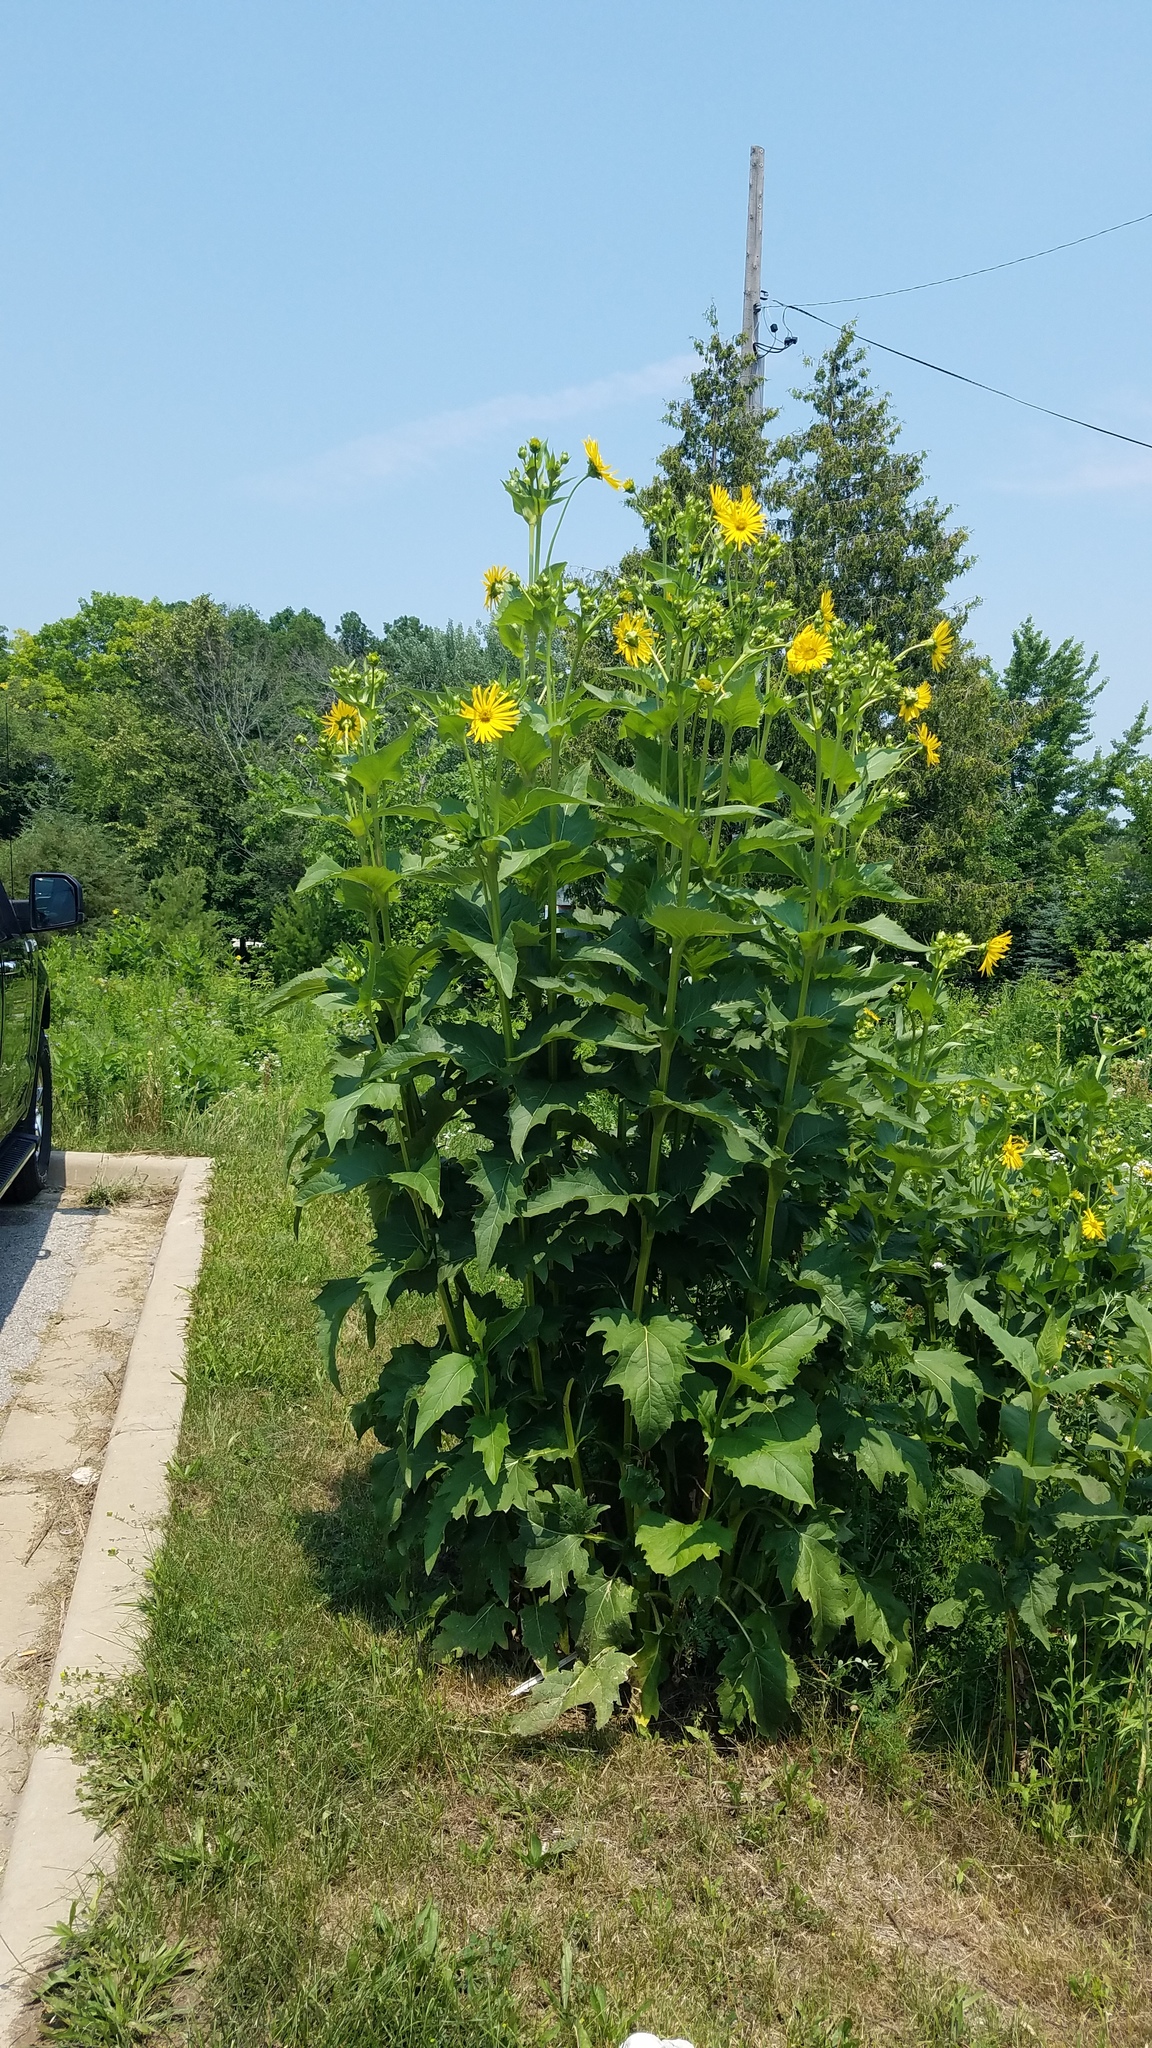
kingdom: Plantae
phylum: Tracheophyta
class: Magnoliopsida
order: Asterales
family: Asteraceae
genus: Silphium
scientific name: Silphium perfoliatum
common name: Cup-plant
